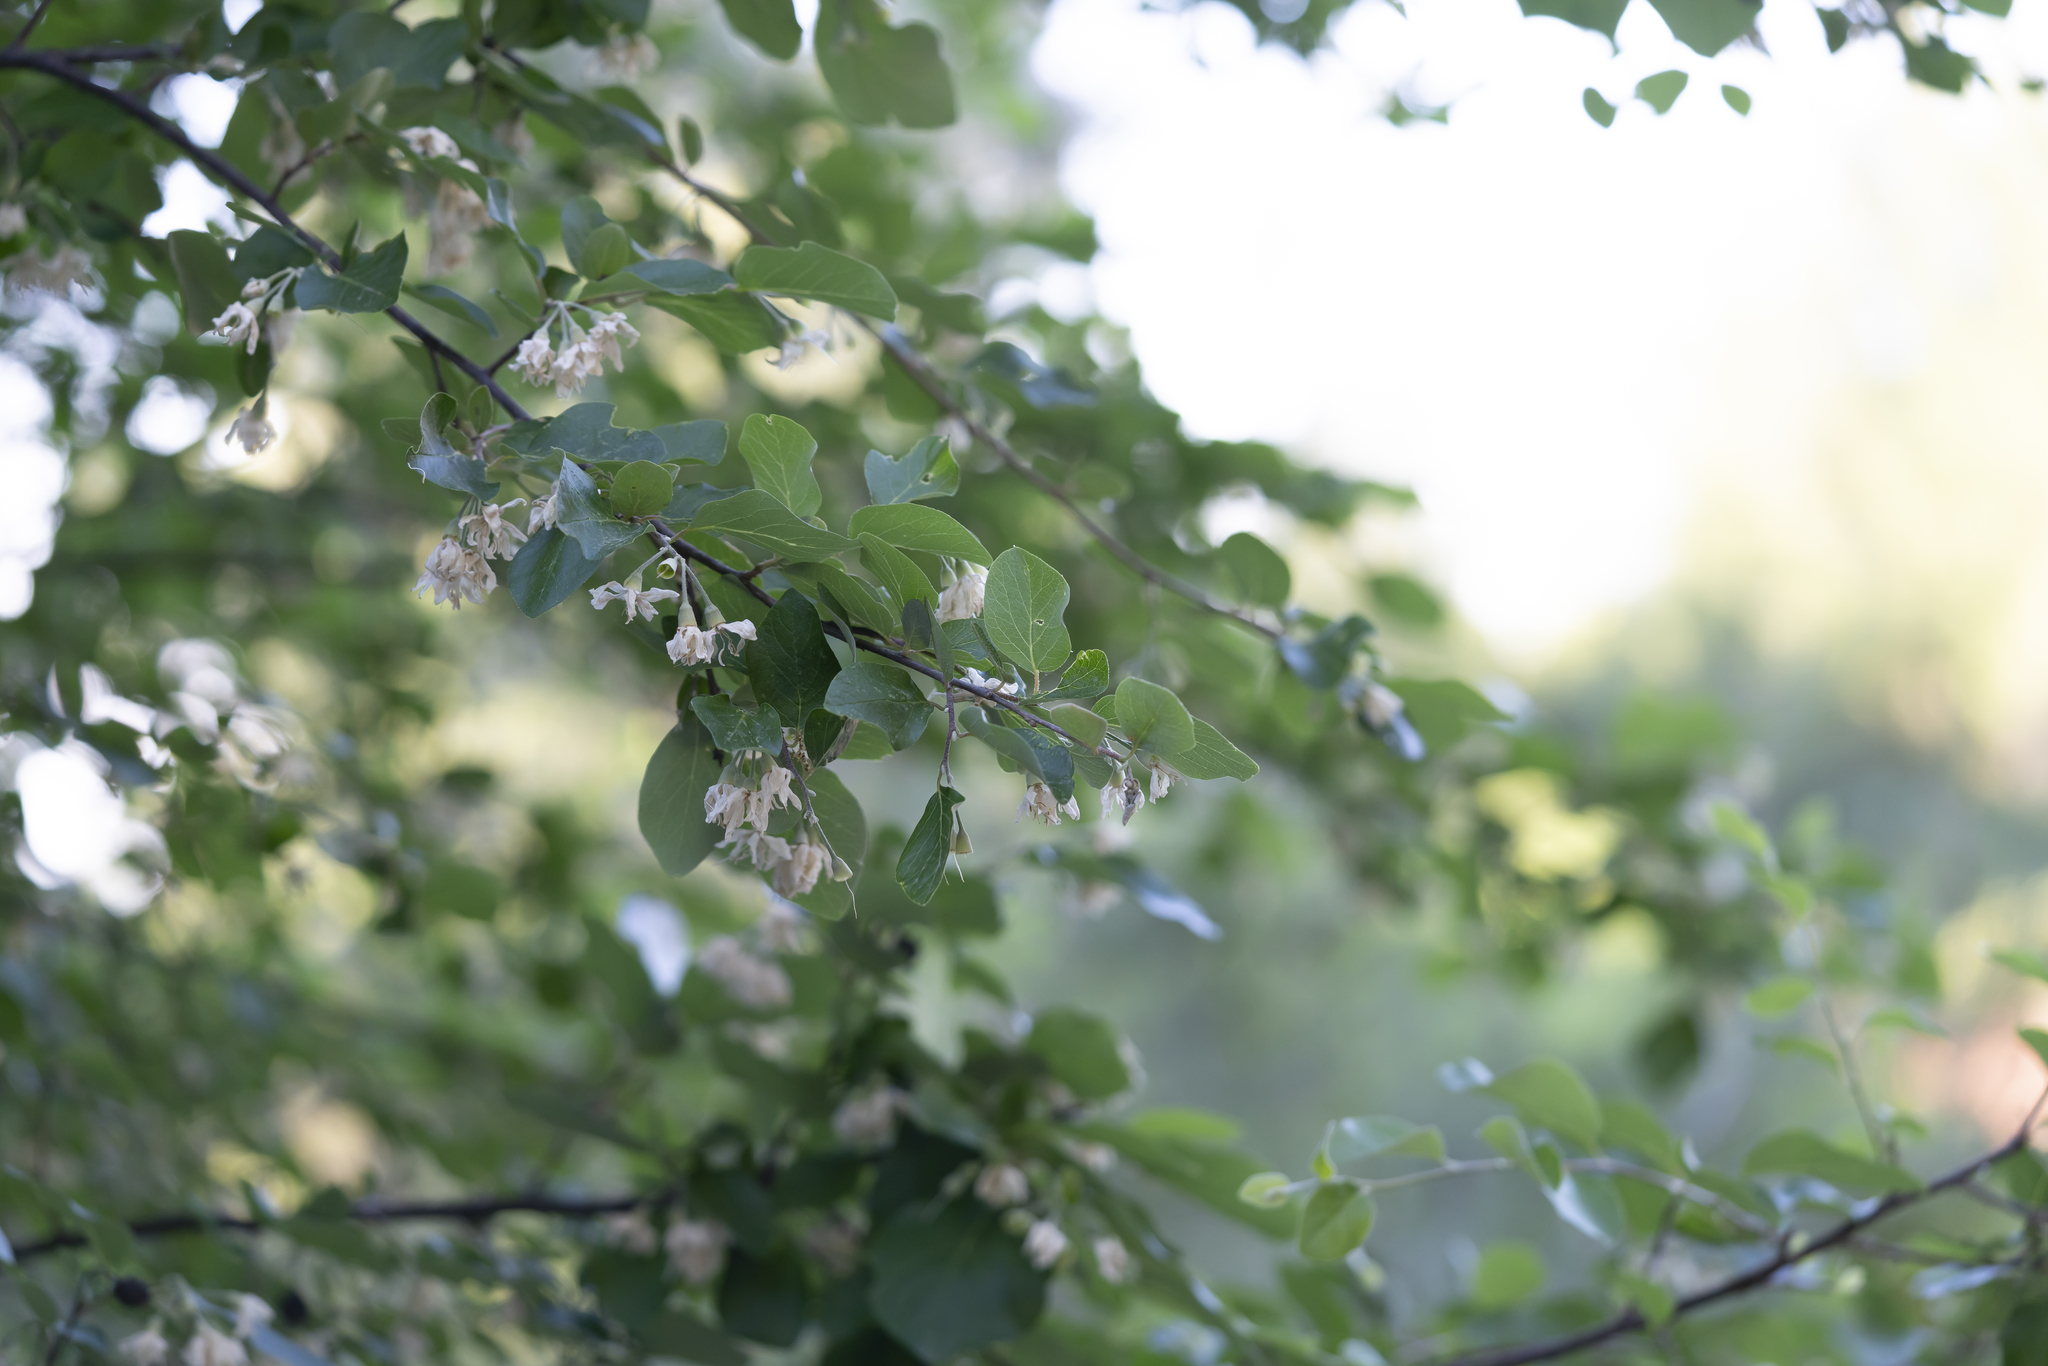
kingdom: Plantae
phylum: Tracheophyta
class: Magnoliopsida
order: Ericales
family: Styracaceae
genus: Styrax
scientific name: Styrax officinalis
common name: Storax
